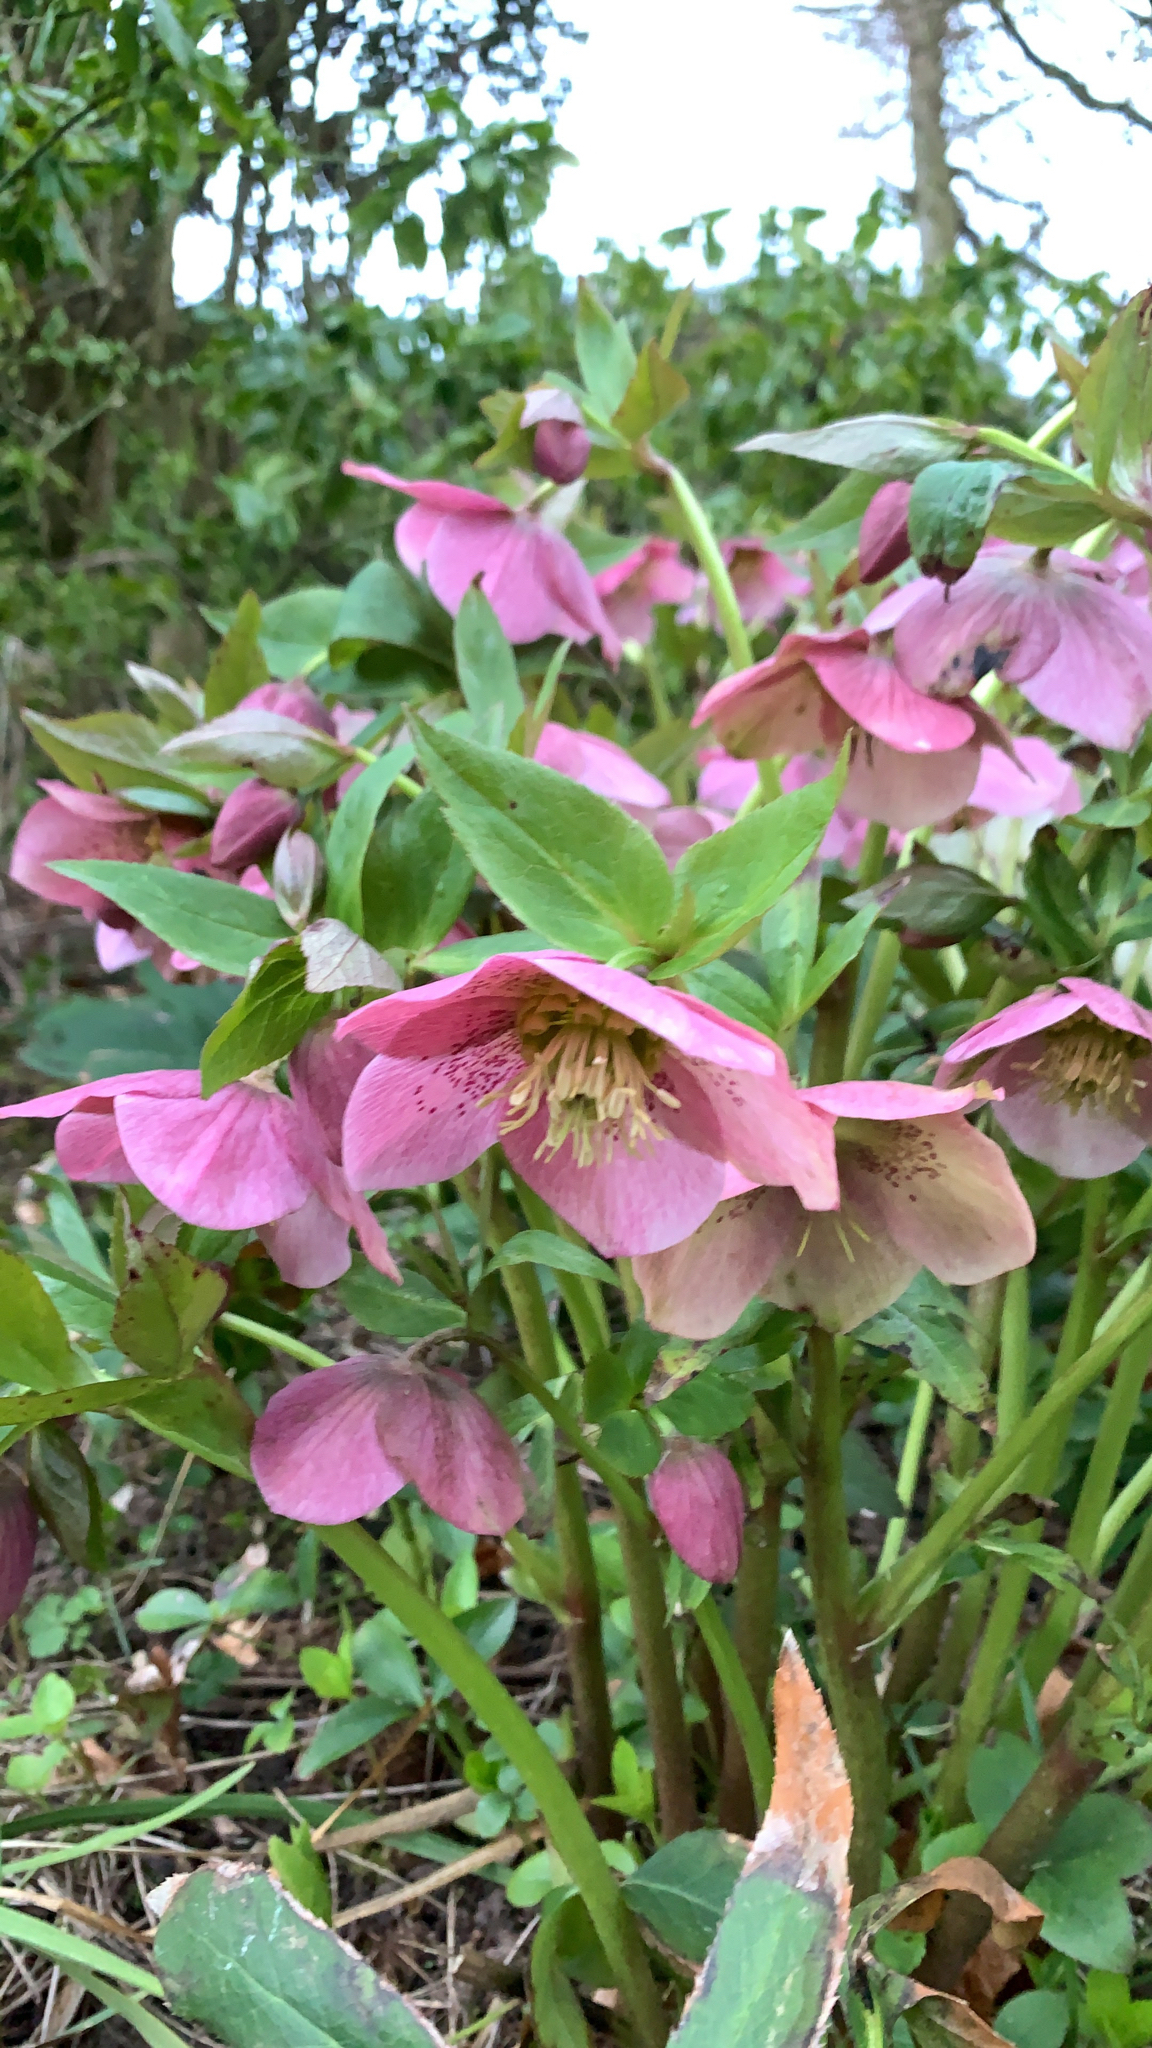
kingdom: Plantae
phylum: Tracheophyta
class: Magnoliopsida
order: Ranunculales
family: Ranunculaceae
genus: Helleborus
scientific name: Helleborus orientalis
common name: Lenten-rose
